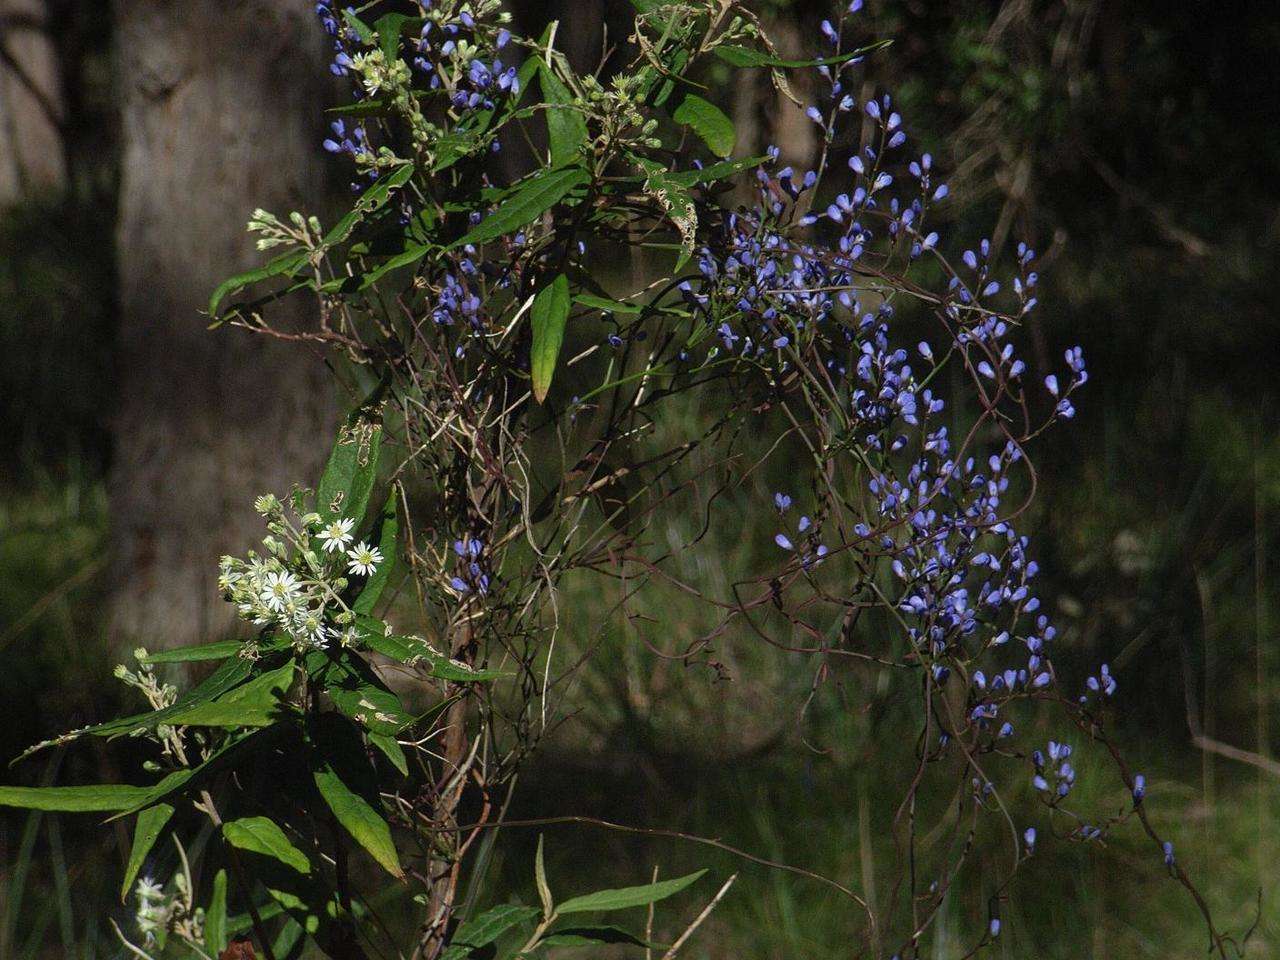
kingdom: Plantae
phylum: Tracheophyta
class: Magnoliopsida
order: Asterales
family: Asteraceae
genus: Olearia
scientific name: Olearia lirata
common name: Dusty daisybush
